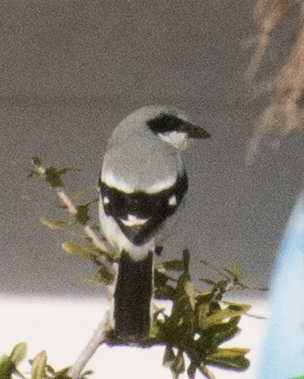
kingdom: Animalia
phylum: Chordata
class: Aves
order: Passeriformes
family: Laniidae
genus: Lanius
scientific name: Lanius ludovicianus
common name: Loggerhead shrike
